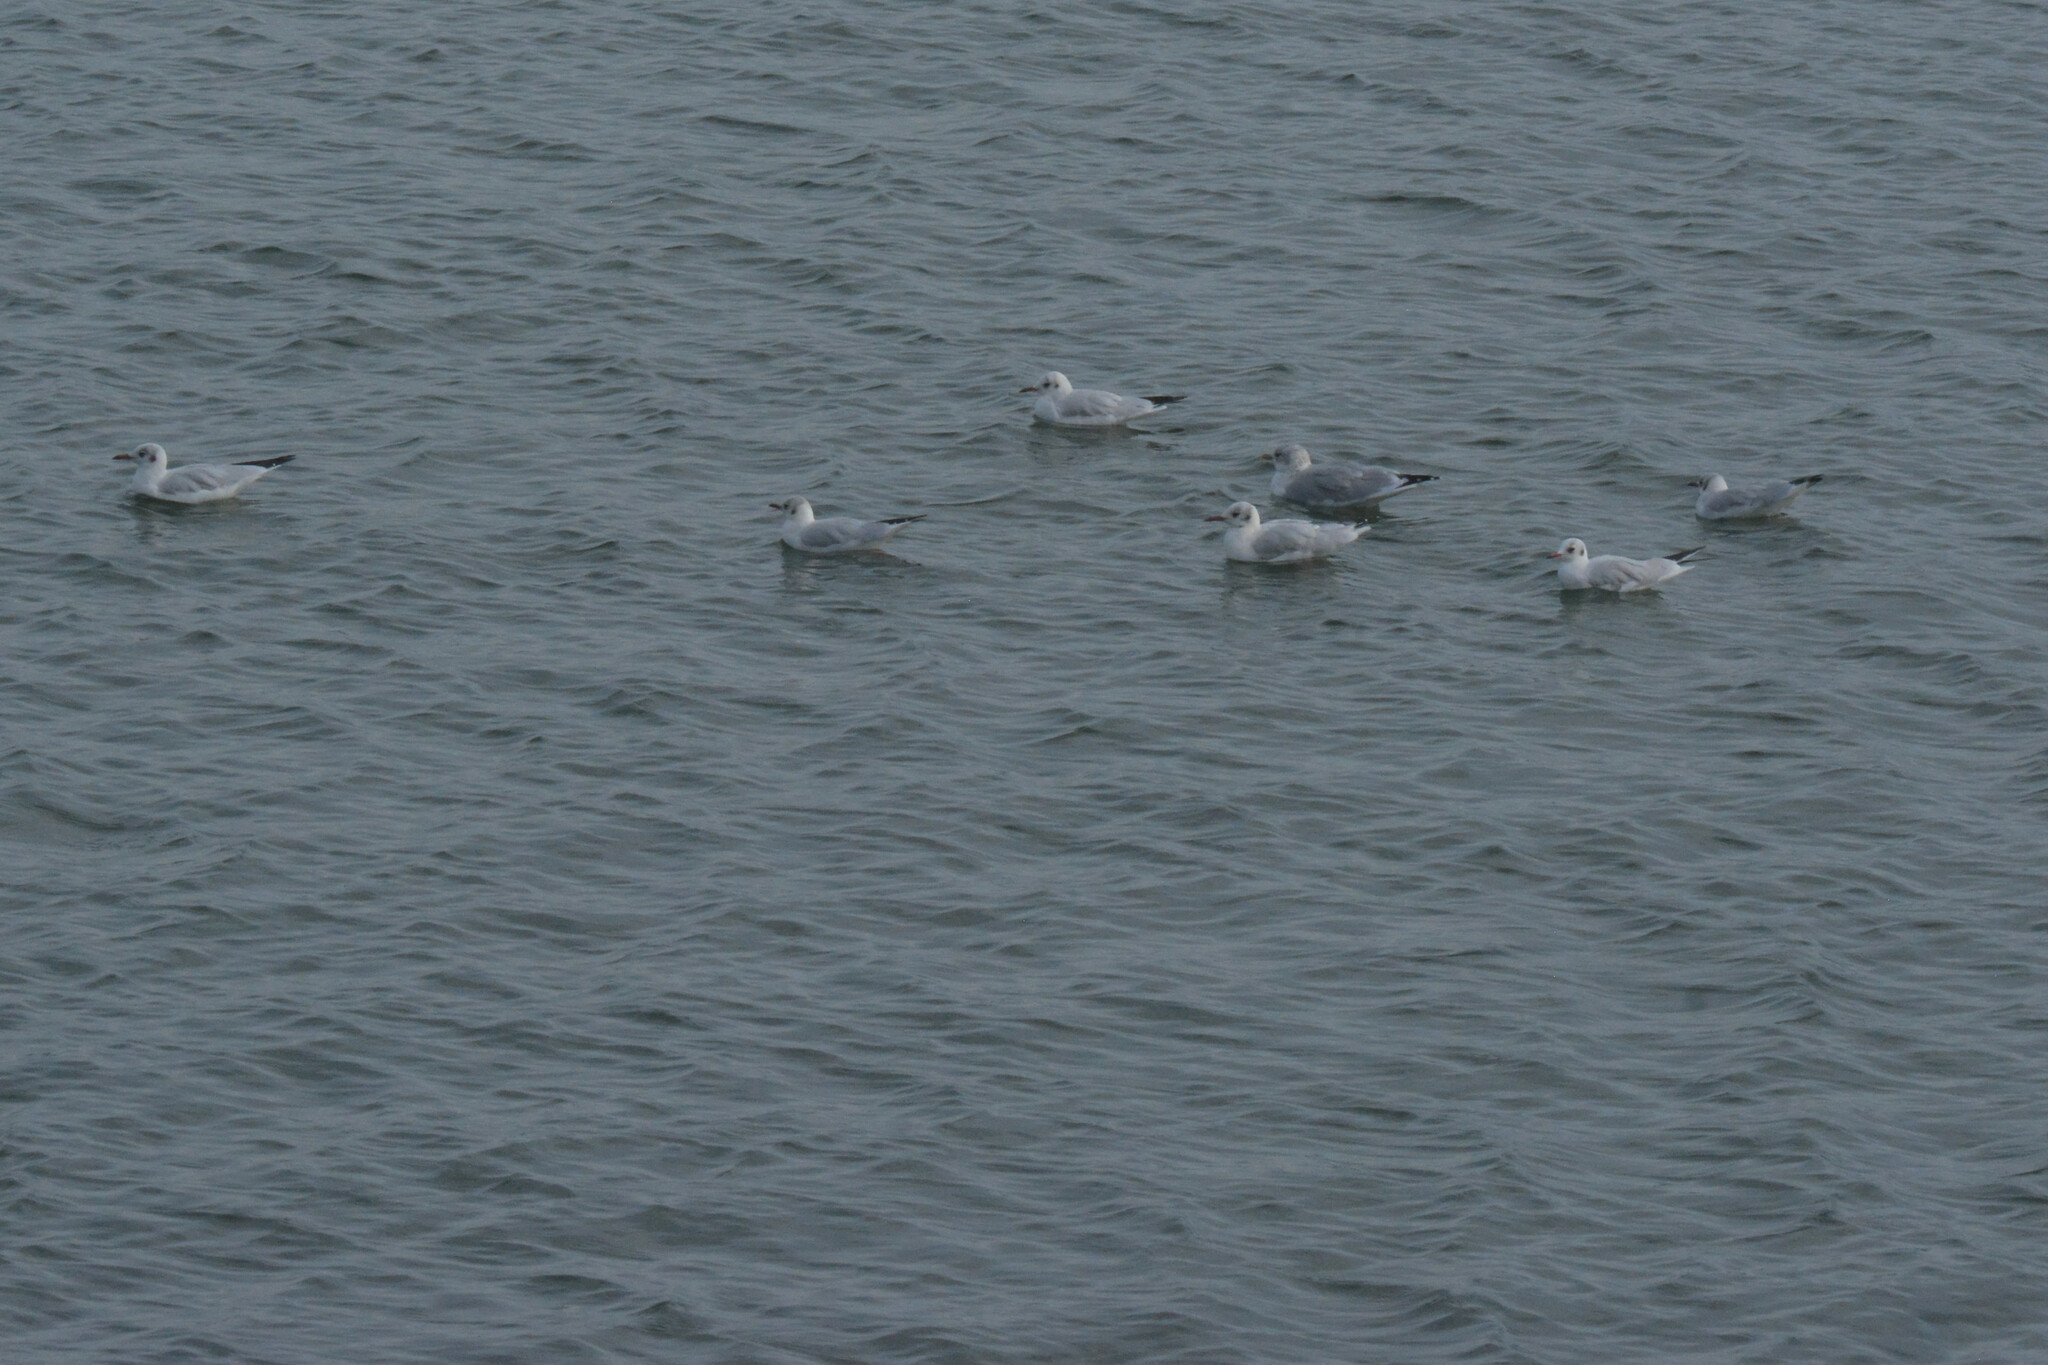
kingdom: Animalia
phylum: Chordata
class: Aves
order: Charadriiformes
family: Laridae
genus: Chroicocephalus
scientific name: Chroicocephalus ridibundus
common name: Black-headed gull
